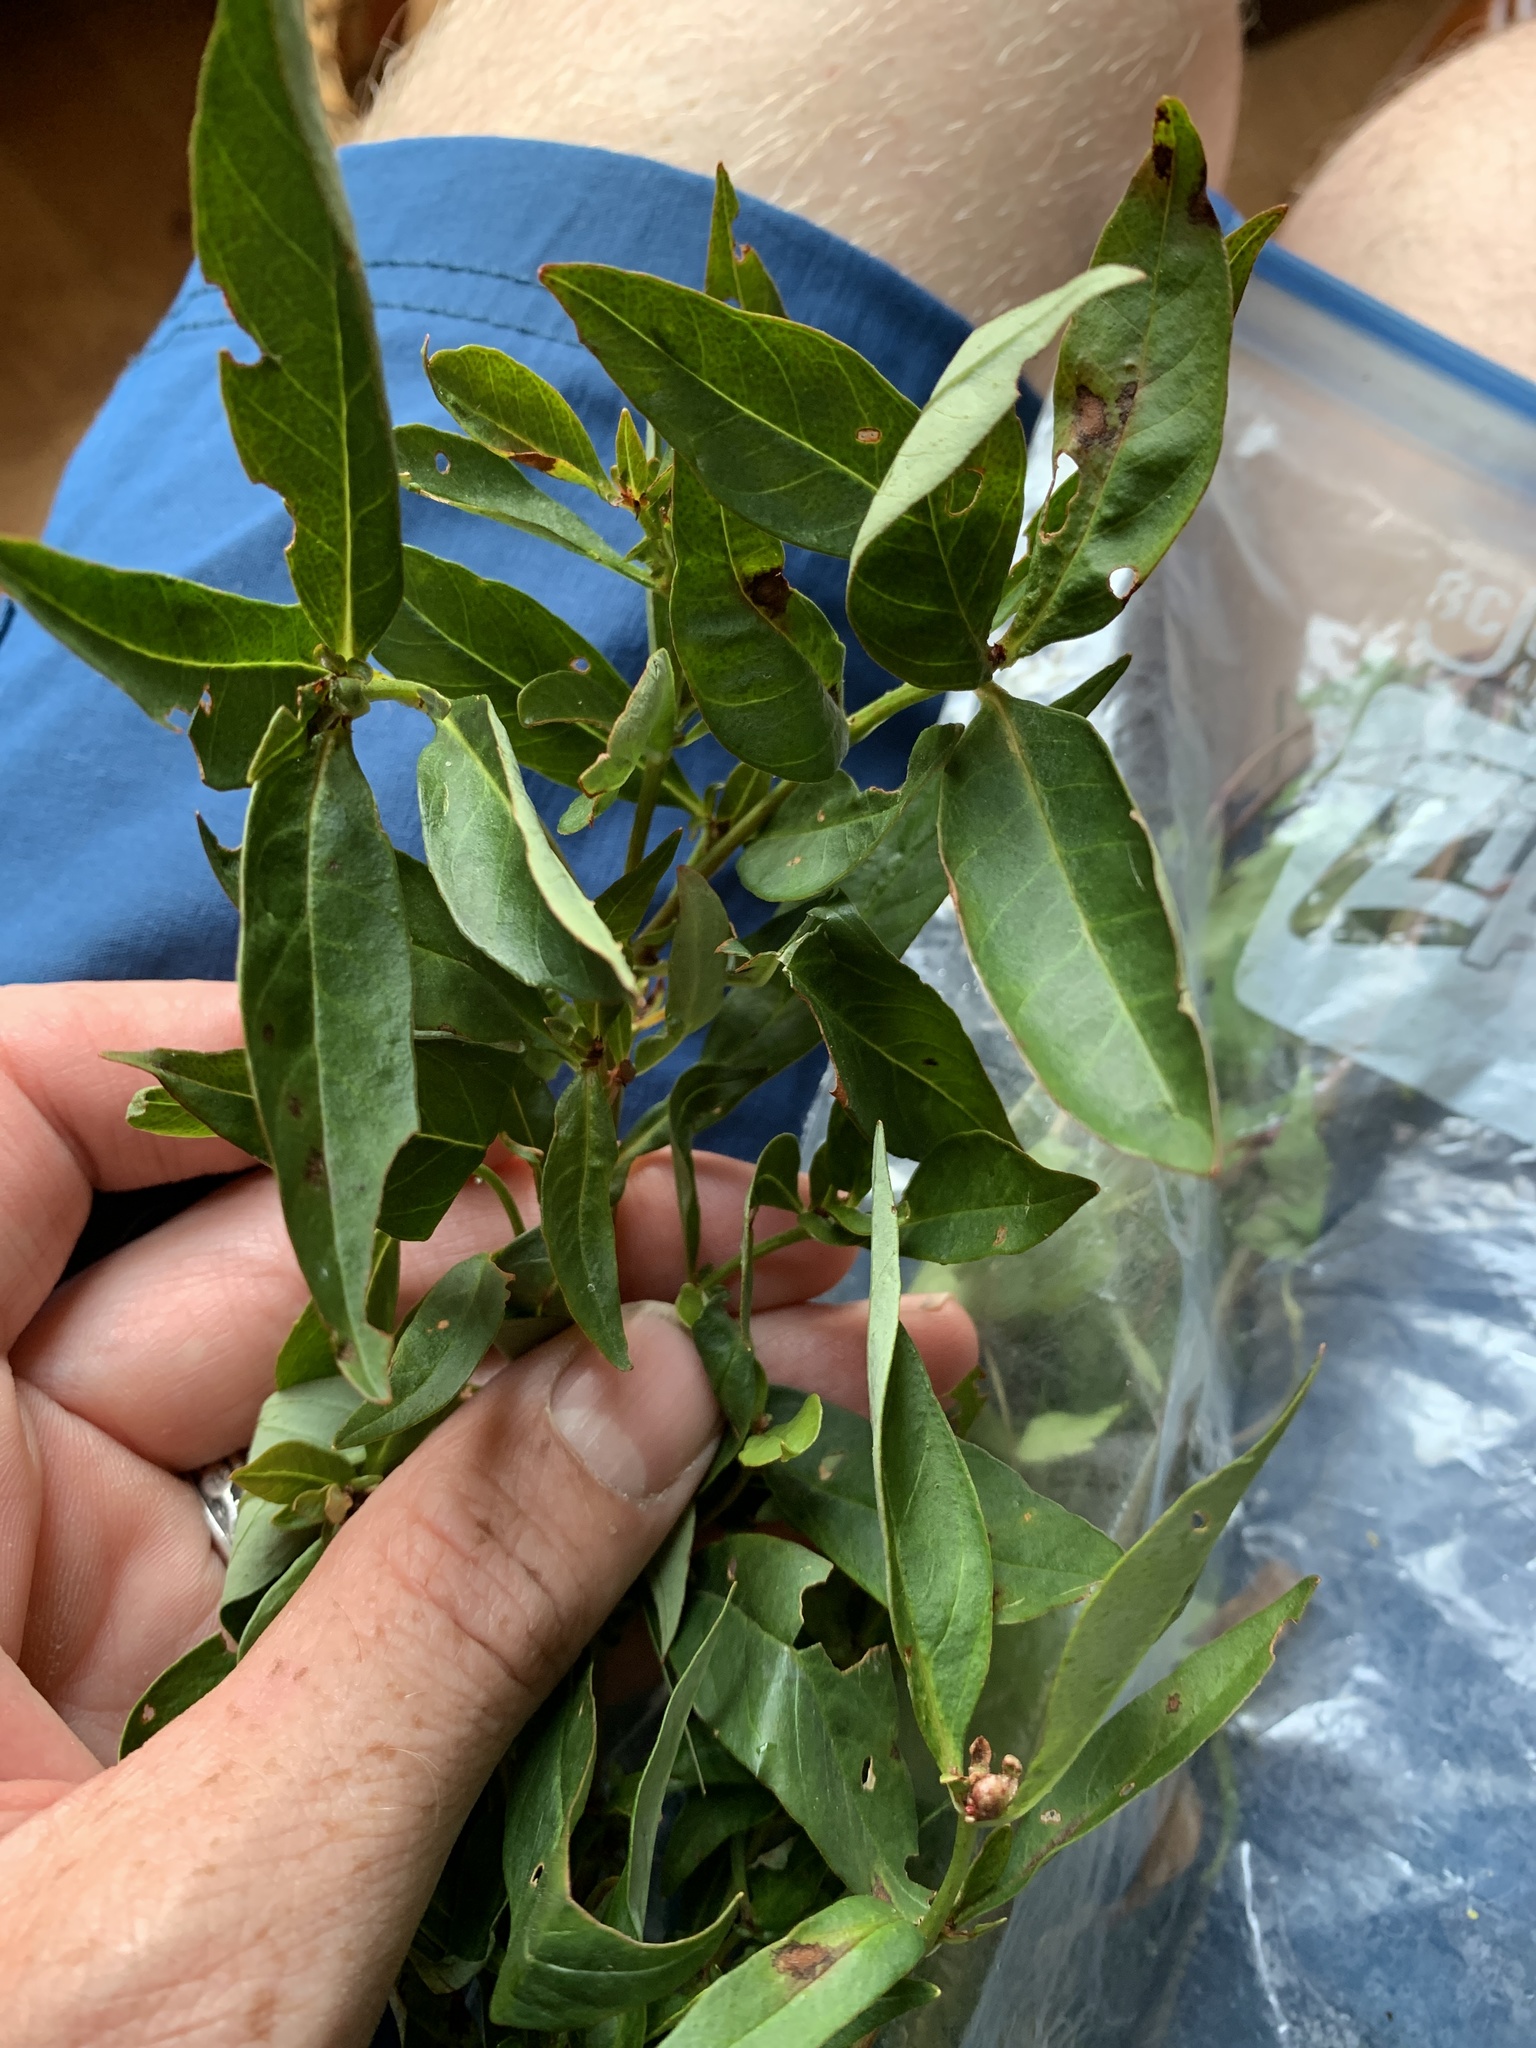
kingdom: Plantae
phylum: Tracheophyta
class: Magnoliopsida
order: Ericales
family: Primulaceae
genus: Lysimachia
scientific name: Lysimachia terrestris
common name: Lake loosestrife
